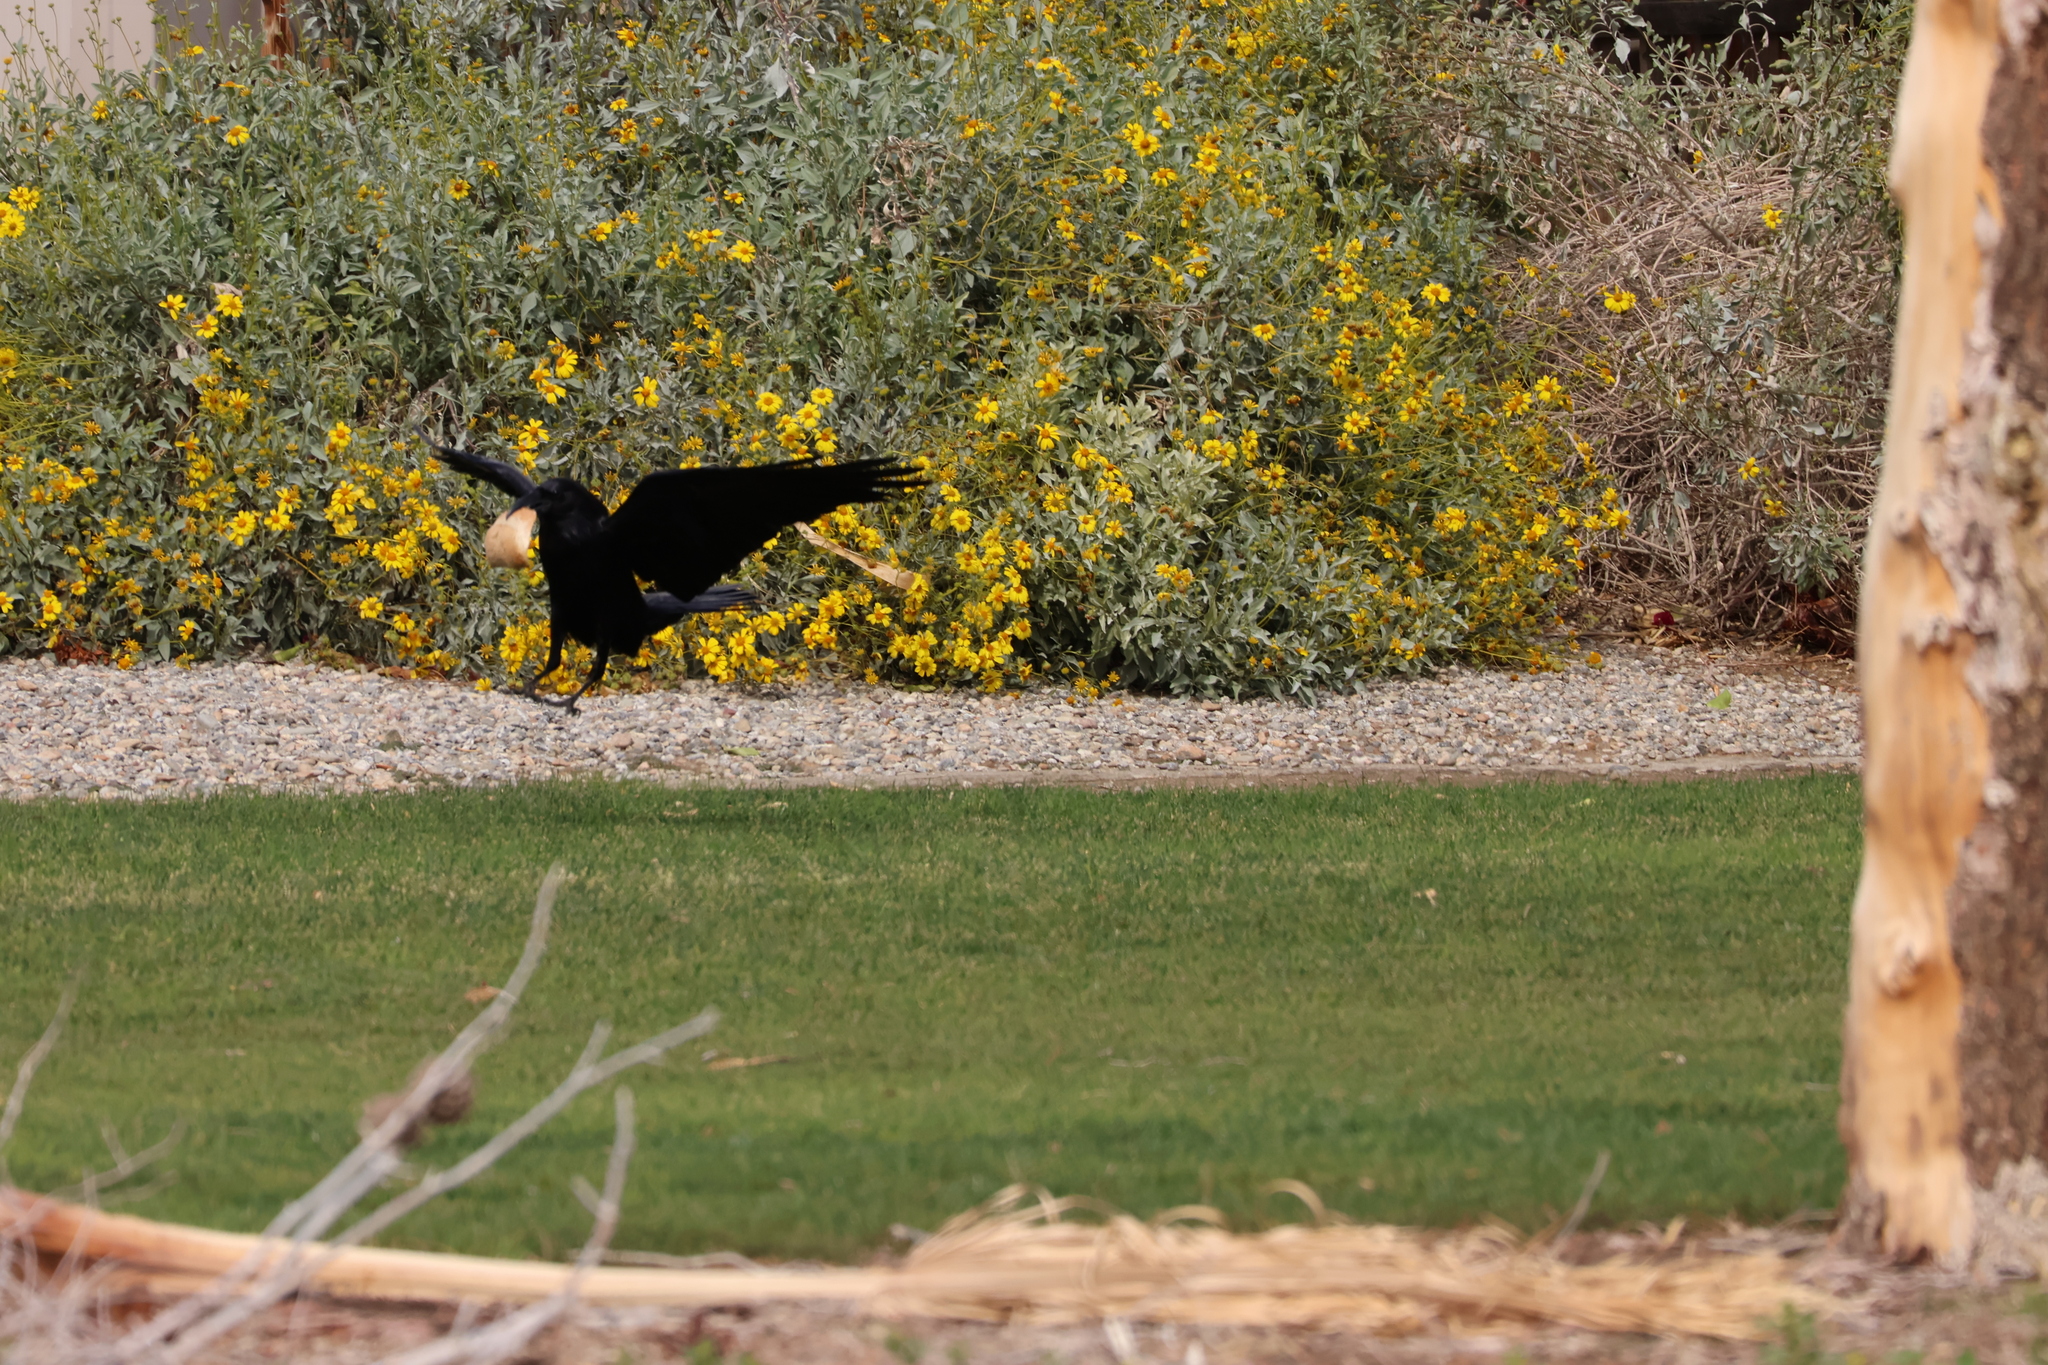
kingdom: Animalia
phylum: Chordata
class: Aves
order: Passeriformes
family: Corvidae
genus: Corvus
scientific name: Corvus corax
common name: Common raven
